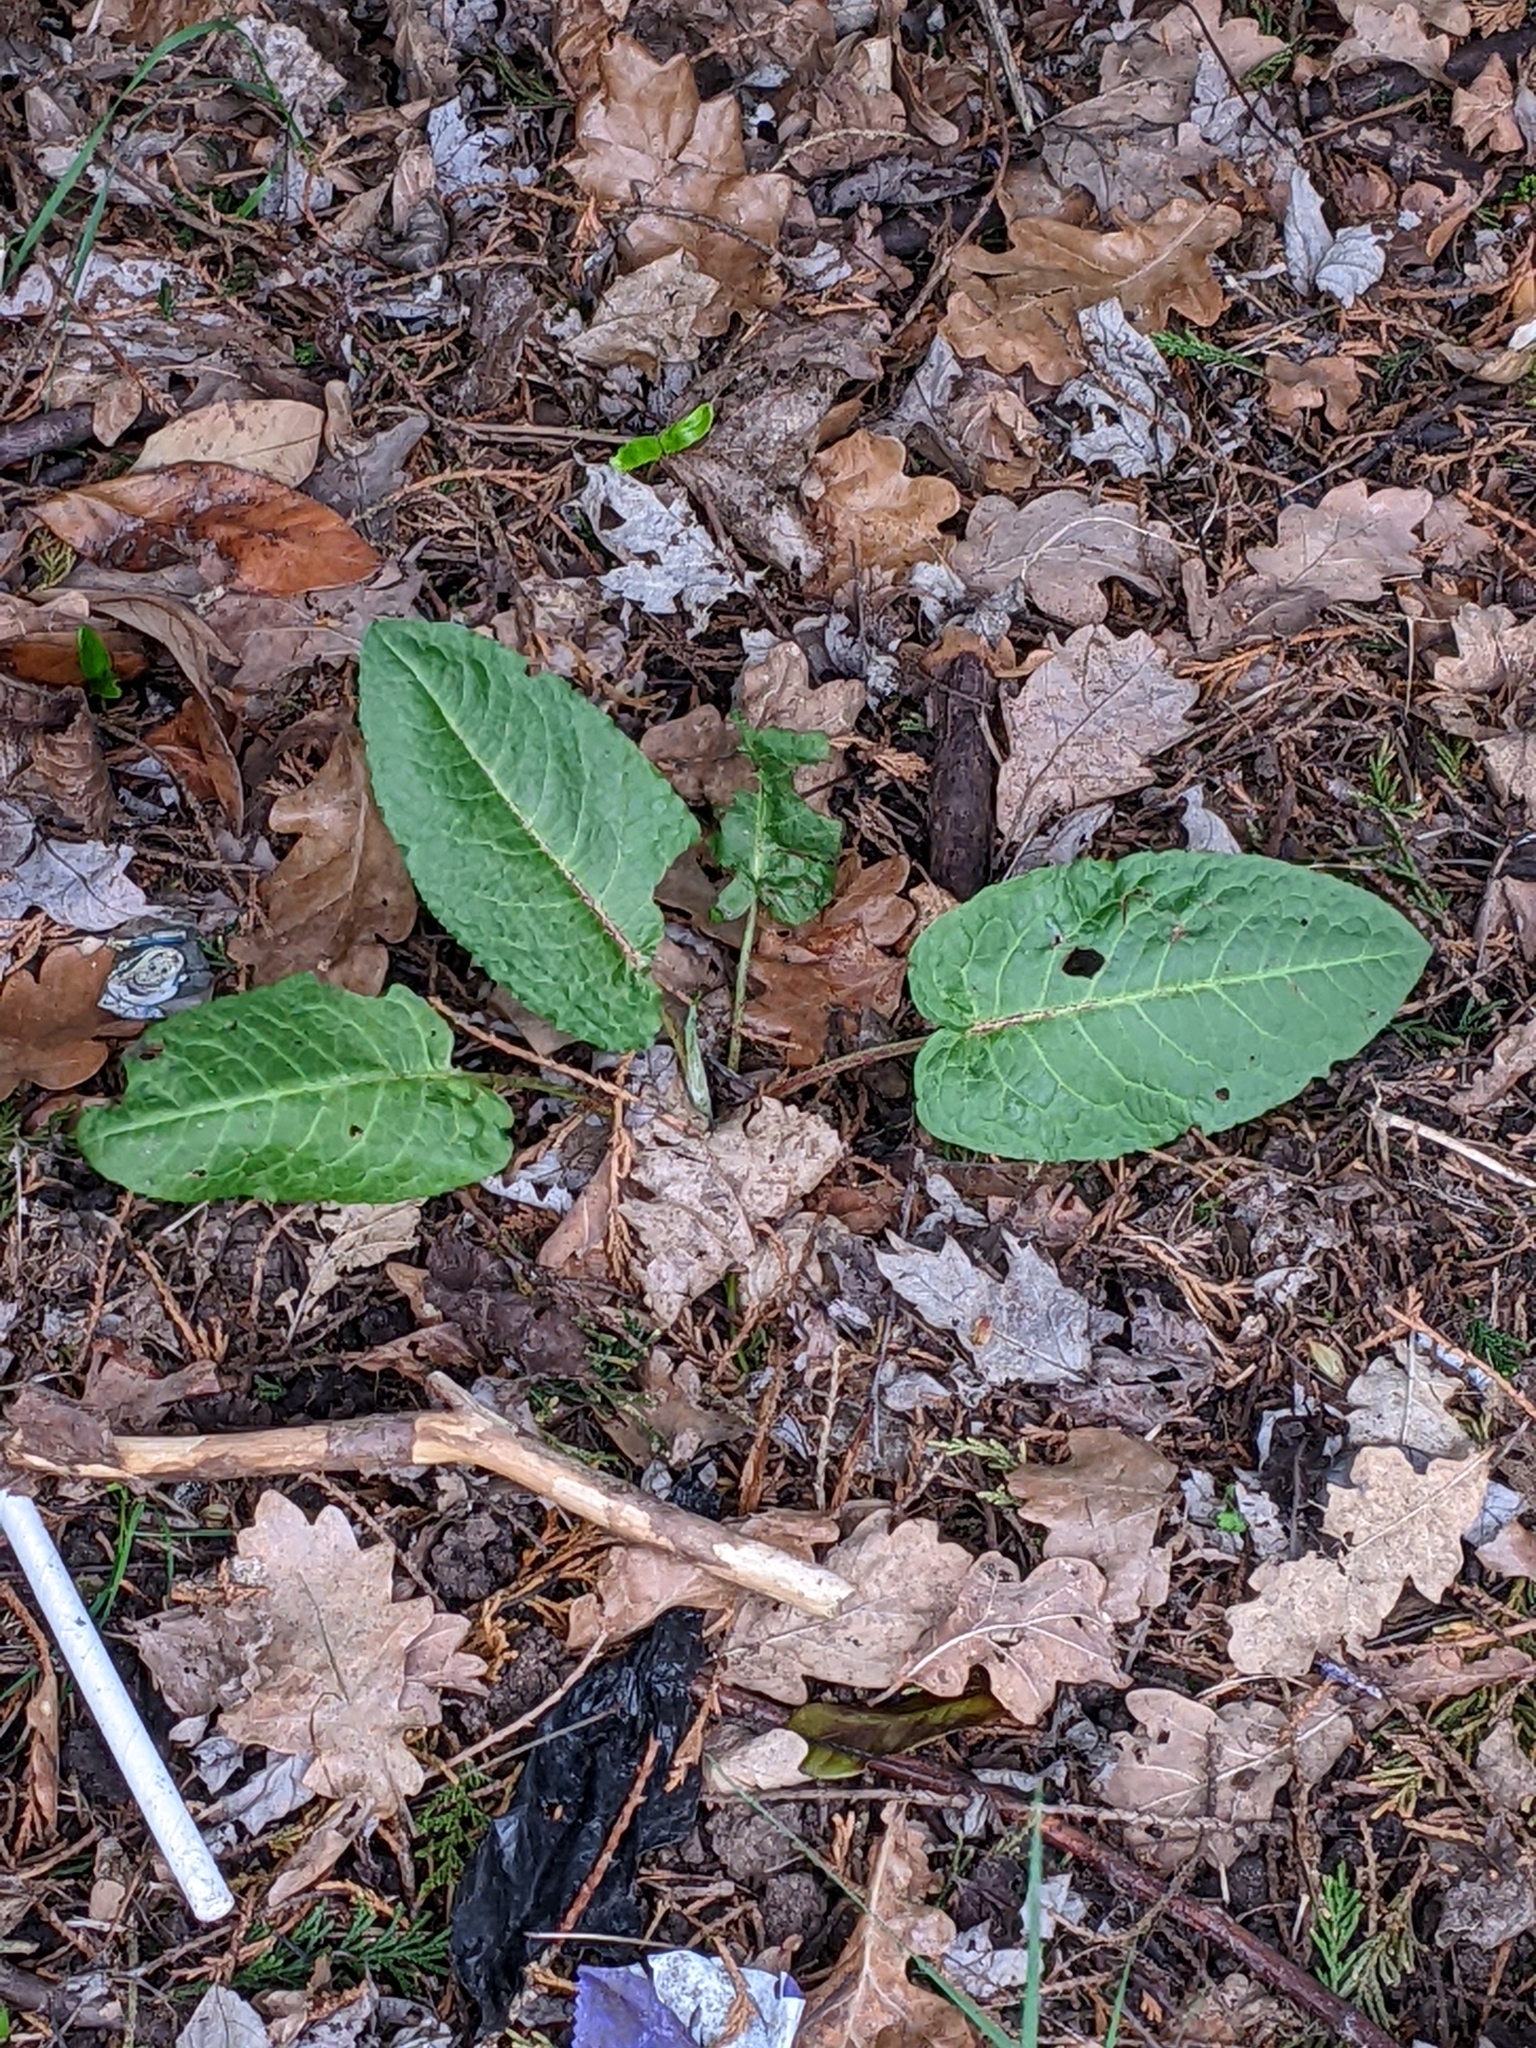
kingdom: Plantae
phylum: Tracheophyta
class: Magnoliopsida
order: Caryophyllales
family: Polygonaceae
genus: Rumex
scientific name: Rumex obtusifolius
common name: Bitter dock
